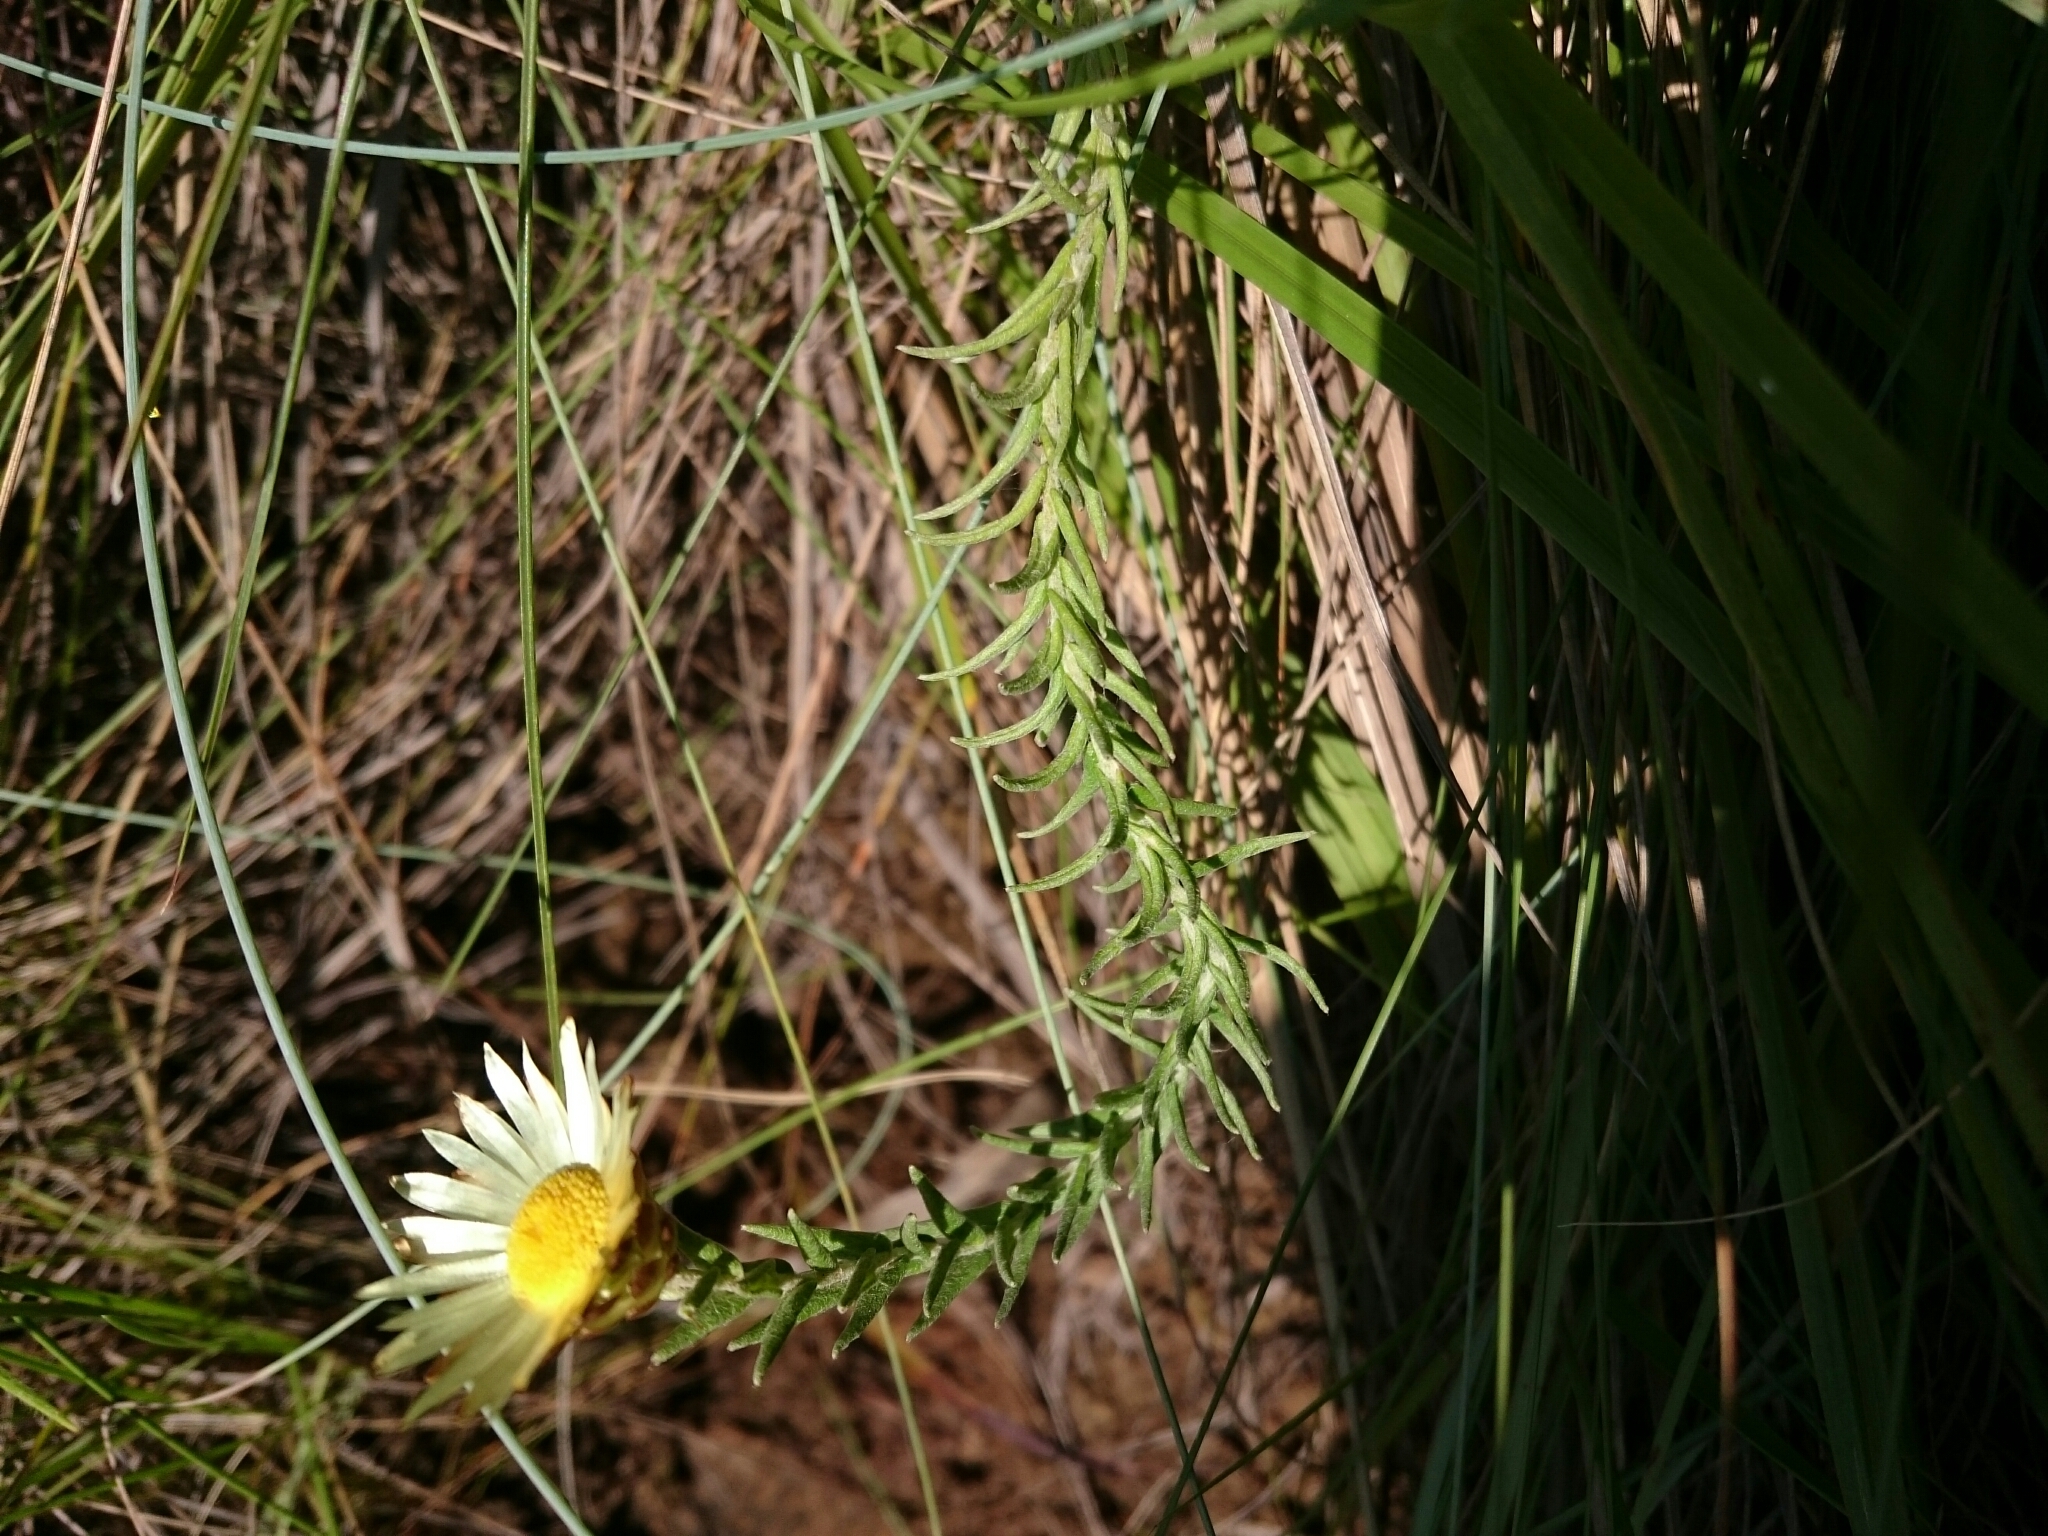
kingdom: Plantae
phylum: Tracheophyta
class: Magnoliopsida
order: Asterales
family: Asteraceae
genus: Helichrysum
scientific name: Helichrysum herbaceum
